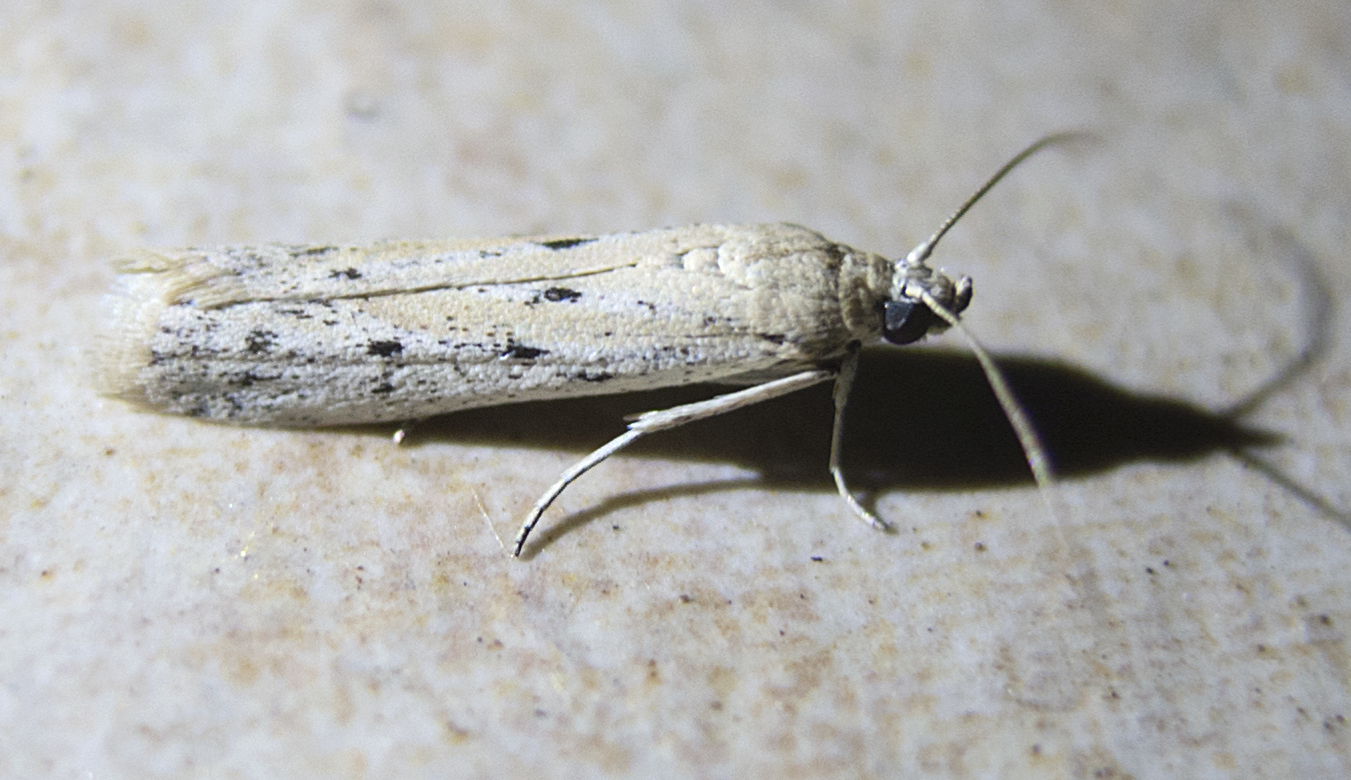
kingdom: Animalia
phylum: Arthropoda
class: Insecta
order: Lepidoptera
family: Pyralidae
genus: Phycitodes
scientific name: Phycitodes lacteella
